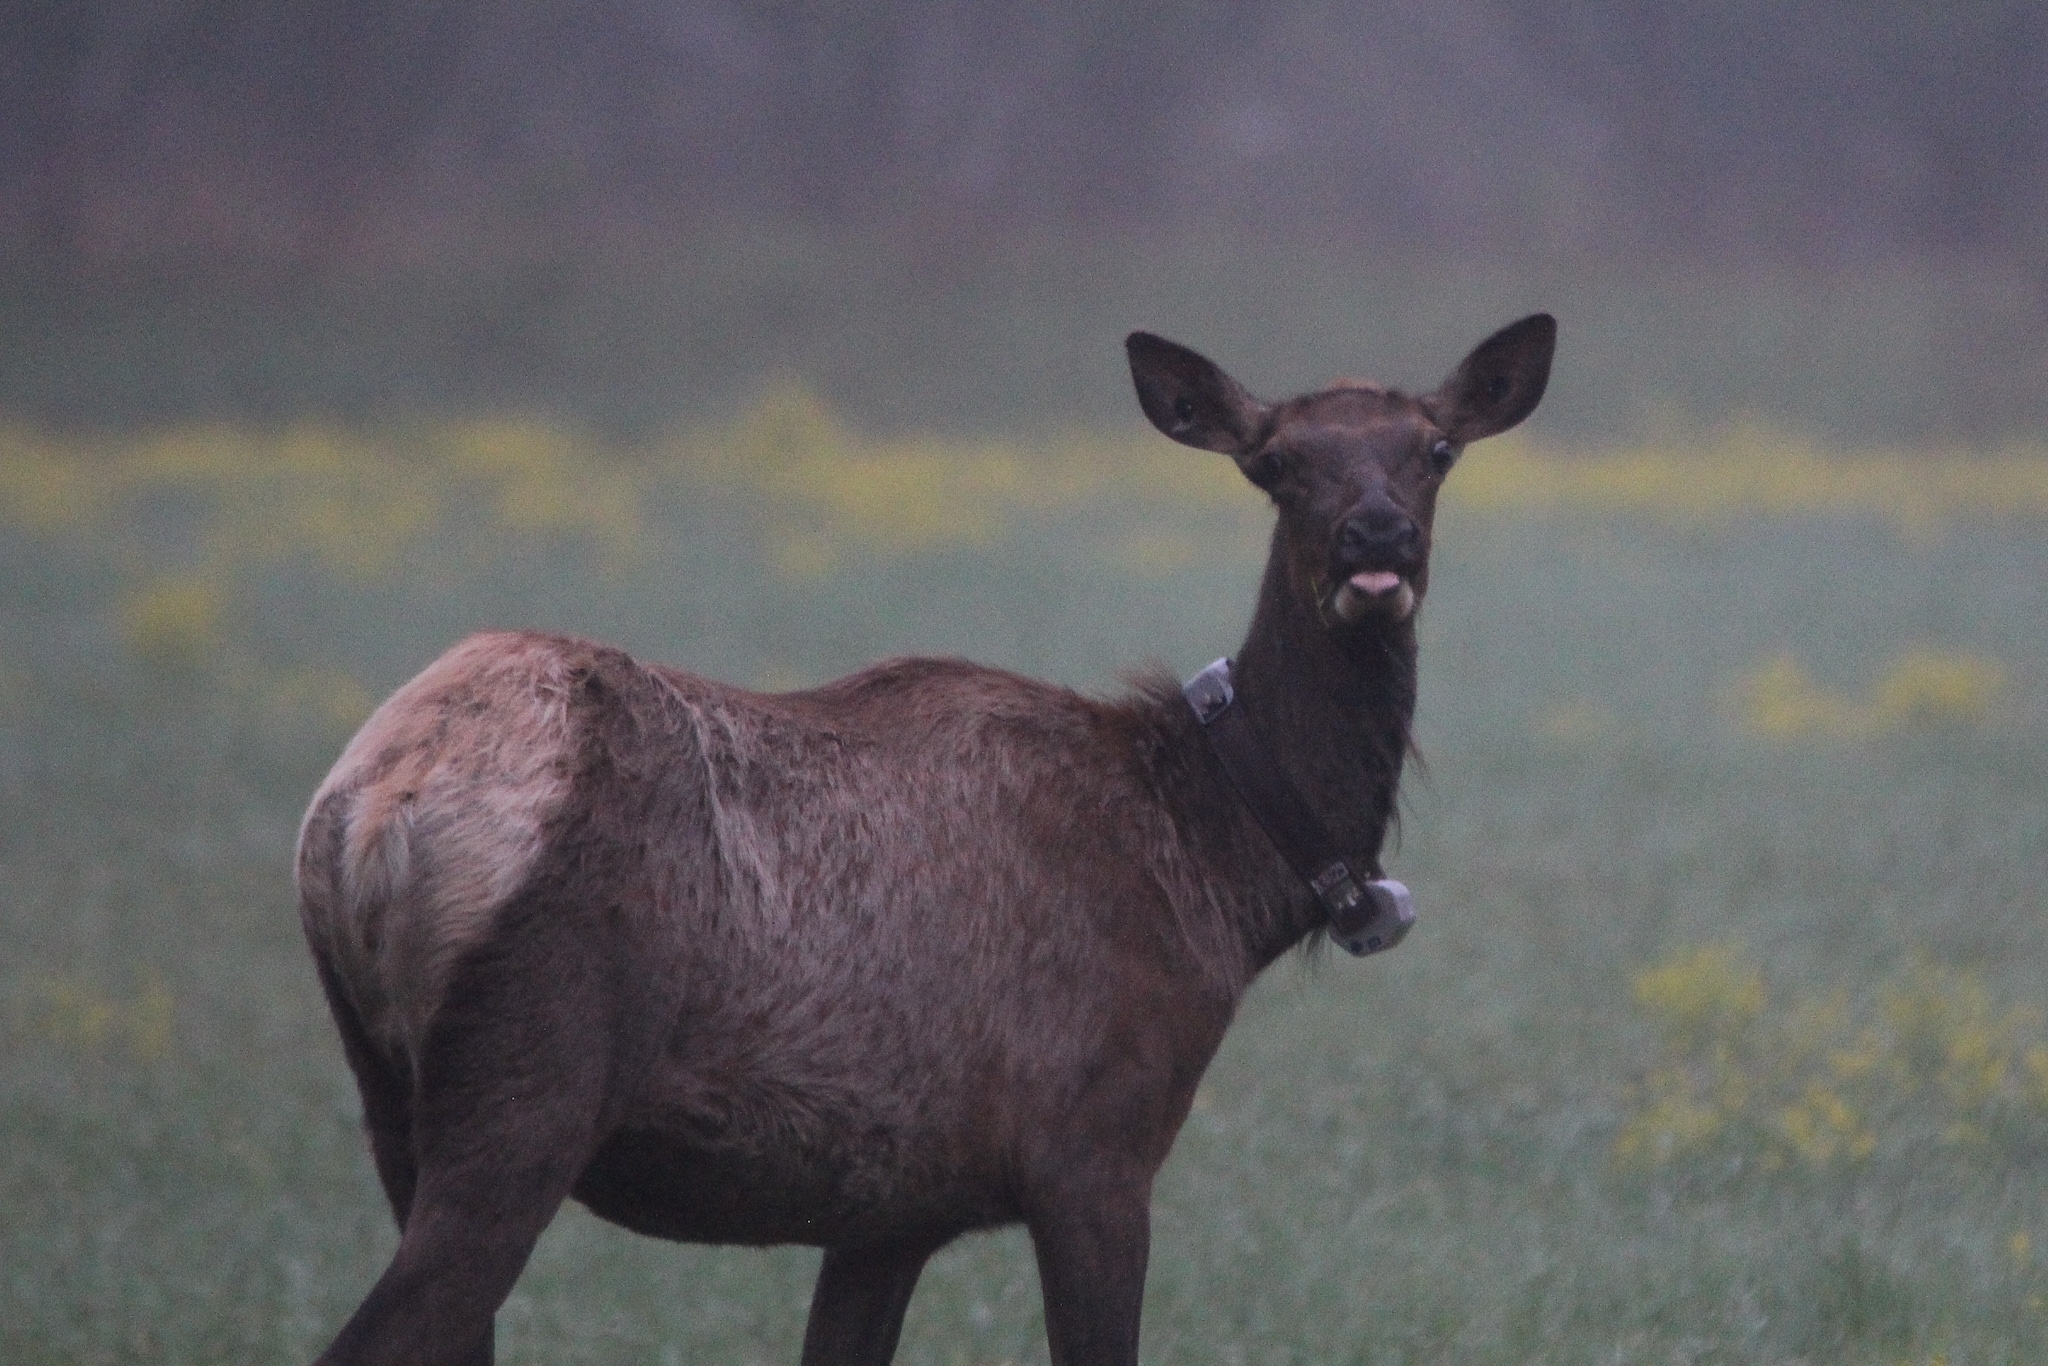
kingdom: Animalia
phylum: Chordata
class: Mammalia
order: Artiodactyla
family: Cervidae
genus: Cervus
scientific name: Cervus elaphus
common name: Red deer
